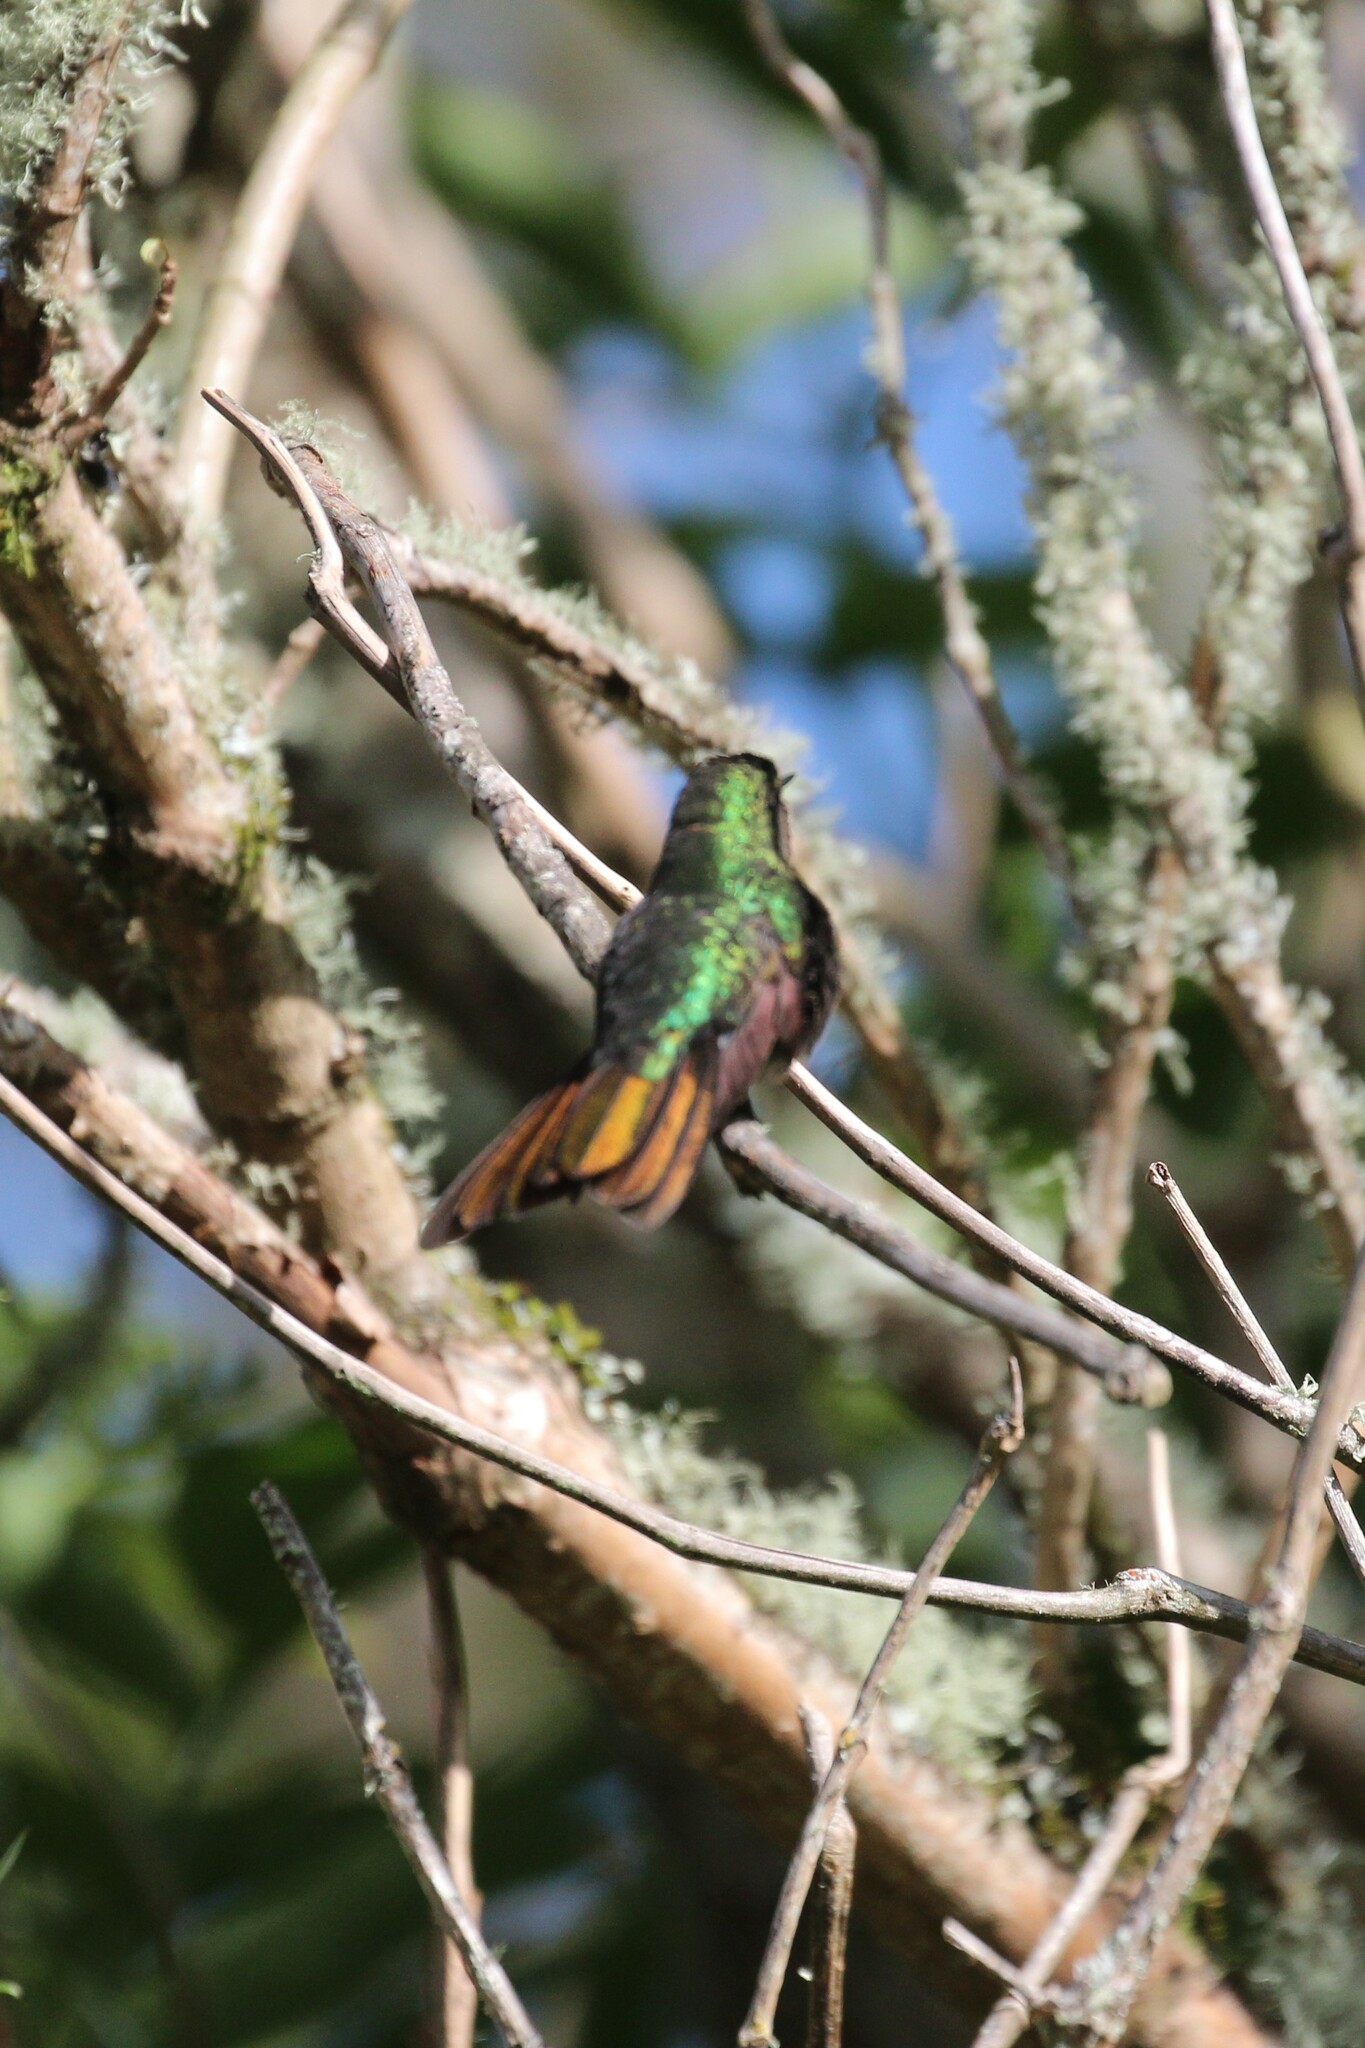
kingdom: Animalia
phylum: Chordata
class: Aves
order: Apodiformes
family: Trochilidae
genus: Metallura
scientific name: Metallura tyrianthina
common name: Tyrian metaltail
